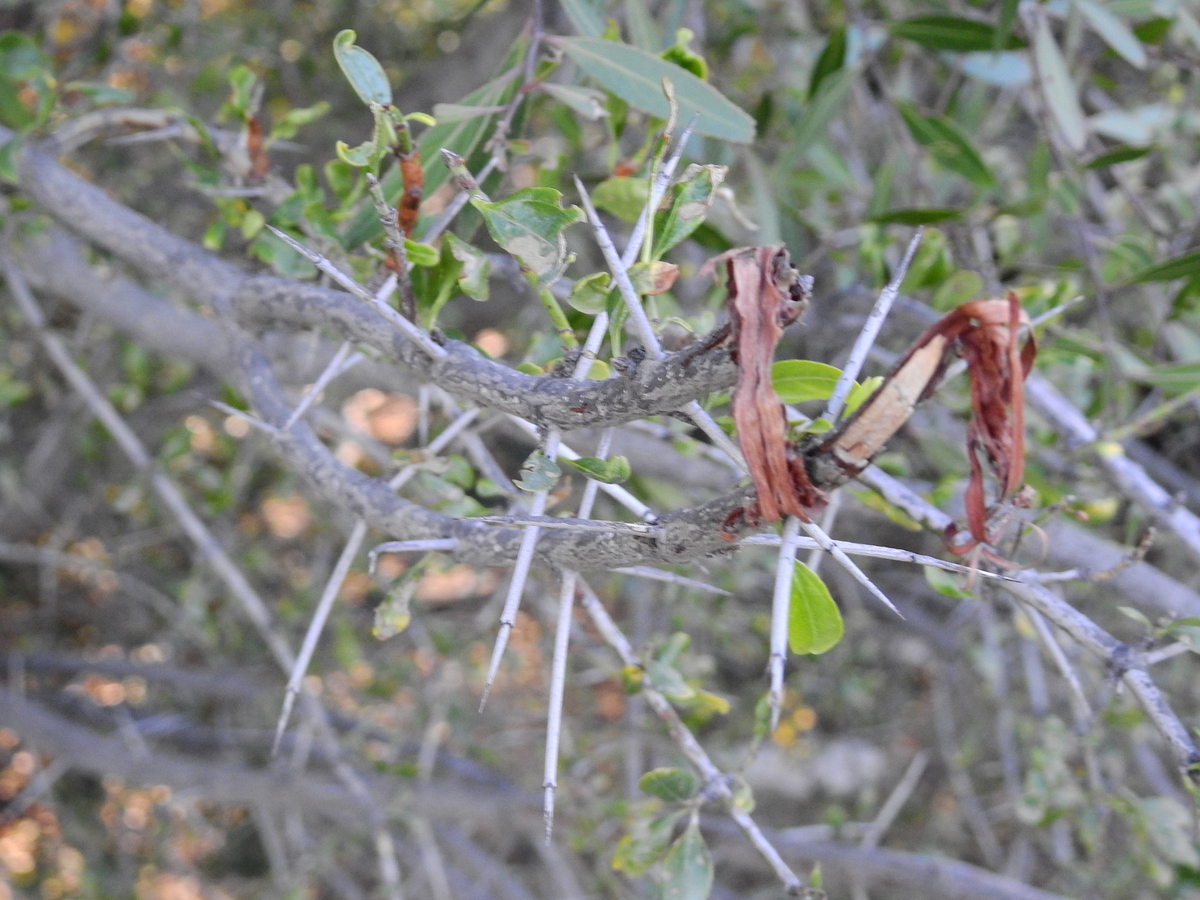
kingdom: Plantae
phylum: Tracheophyta
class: Magnoliopsida
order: Rosales
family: Rhamnaceae
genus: Discaria
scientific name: Discaria chacaye
